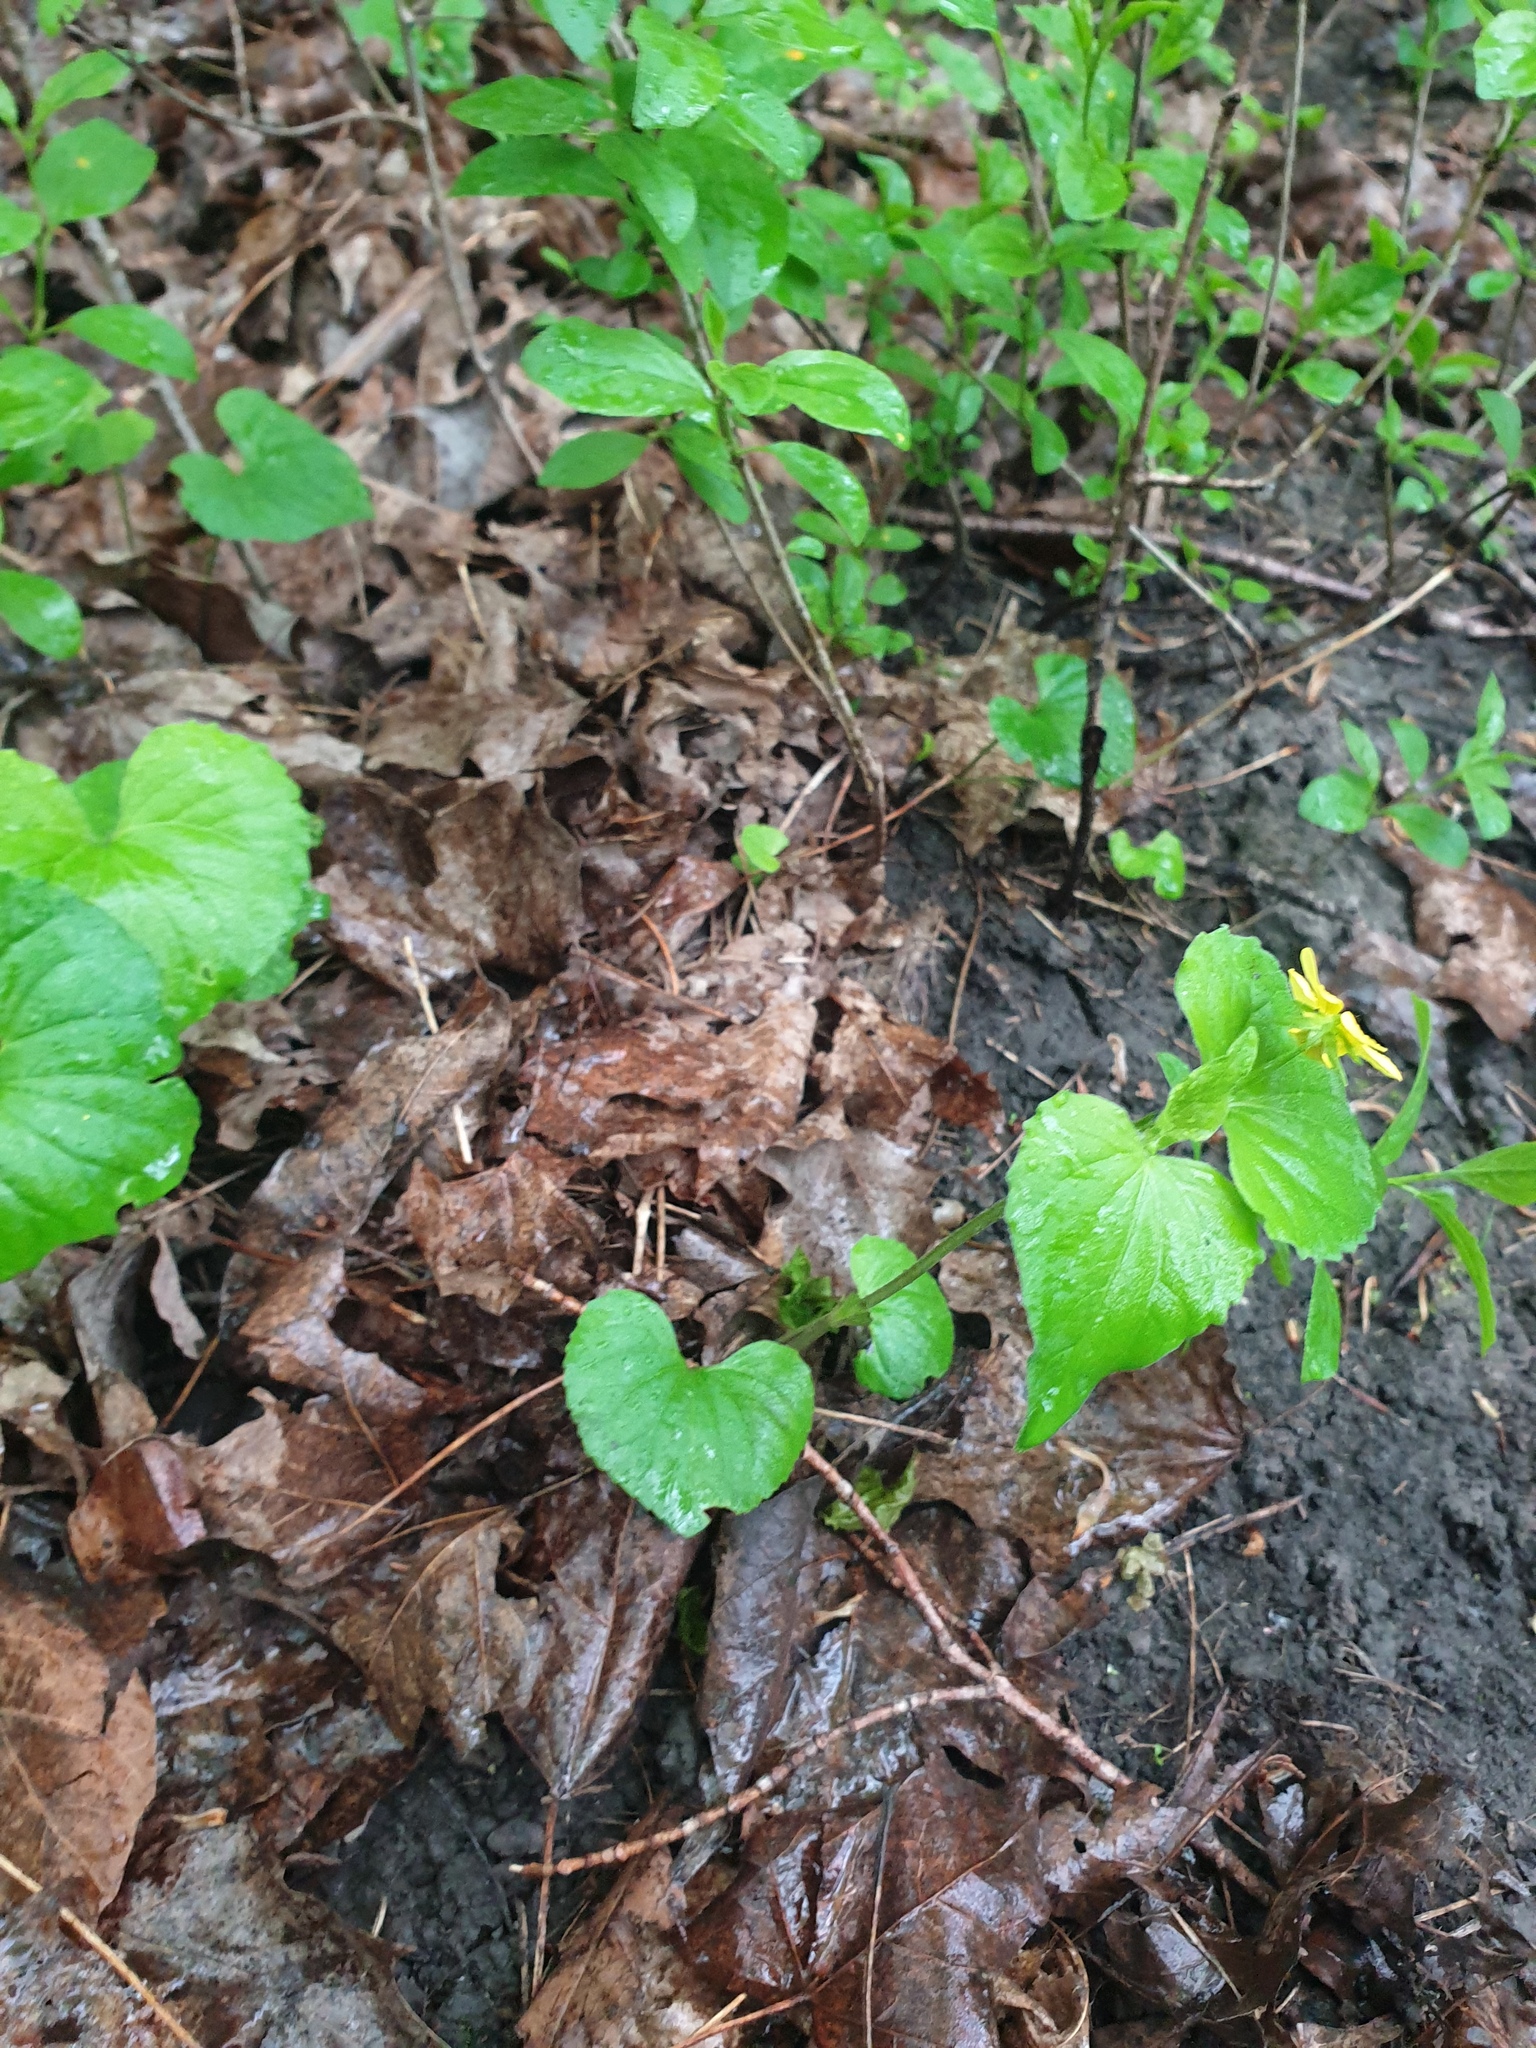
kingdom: Plantae
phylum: Tracheophyta
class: Magnoliopsida
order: Malpighiales
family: Violaceae
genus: Viola
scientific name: Viola eriocarpa
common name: Smooth yellow violet
